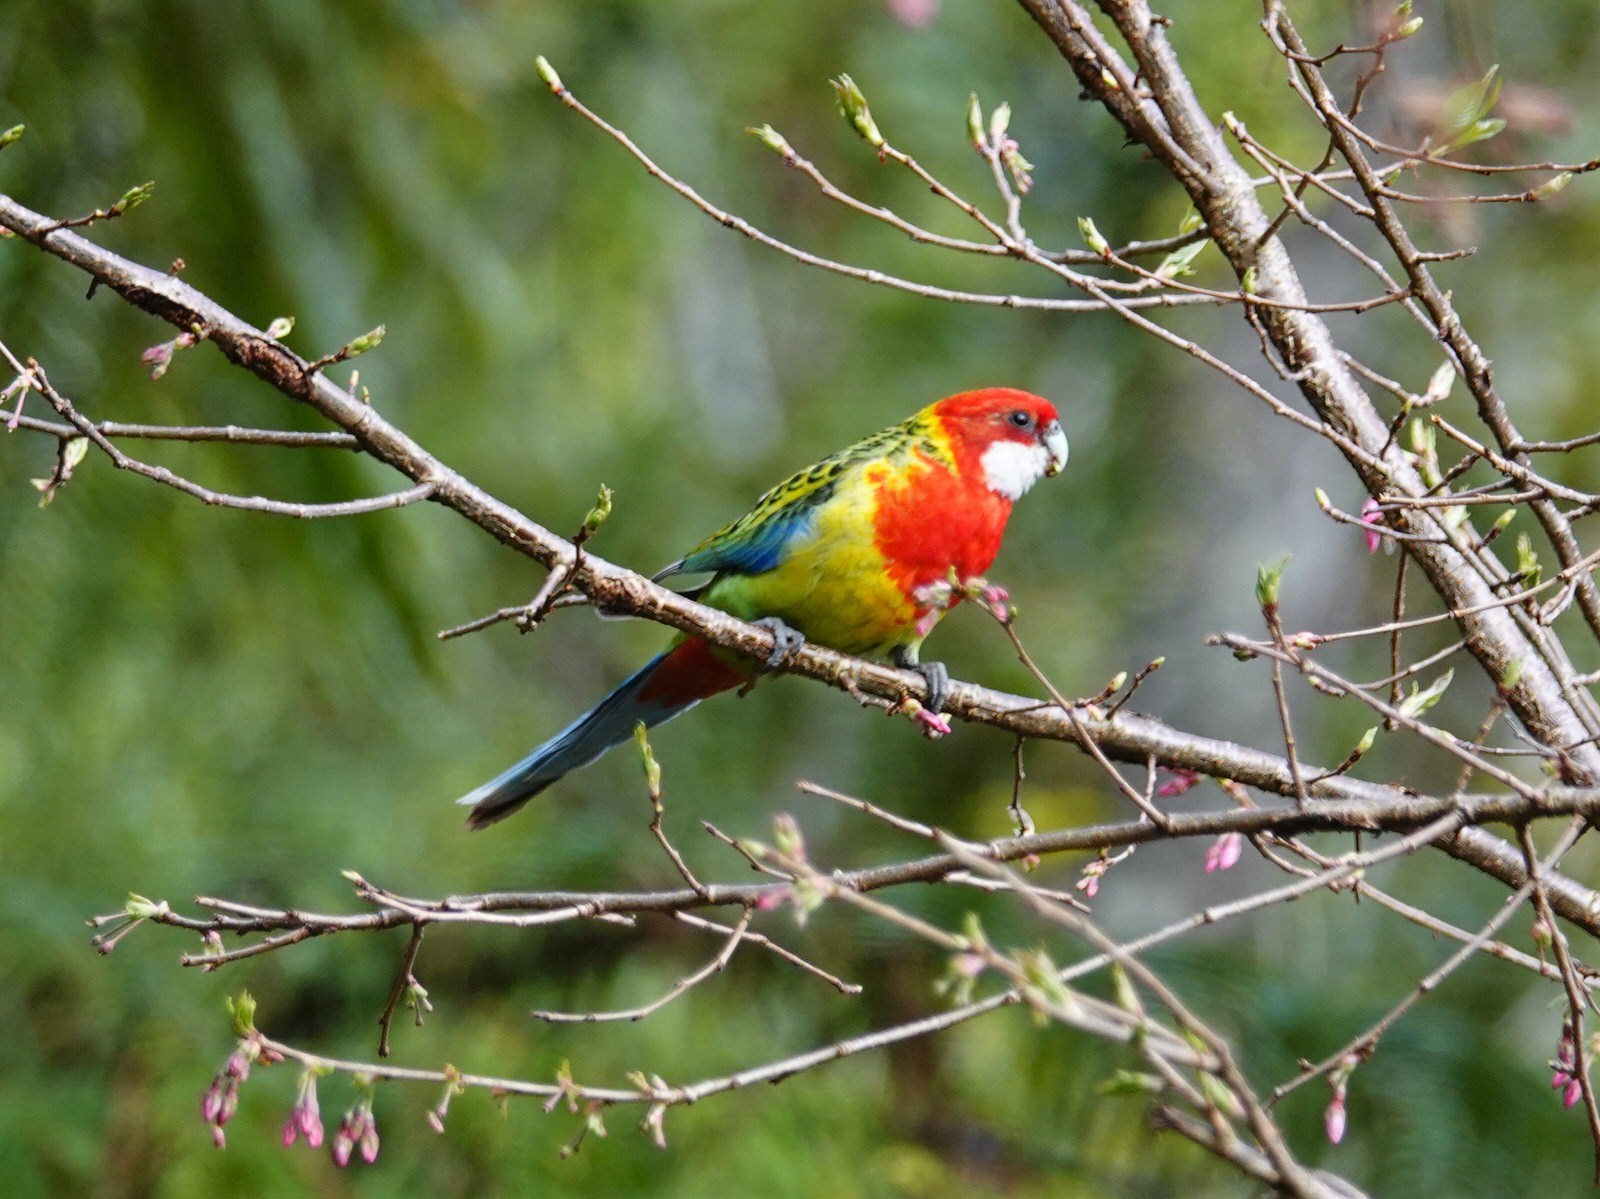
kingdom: Animalia
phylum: Chordata
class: Aves
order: Psittaciformes
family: Psittacidae
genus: Platycercus
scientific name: Platycercus eximius
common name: Eastern rosella
